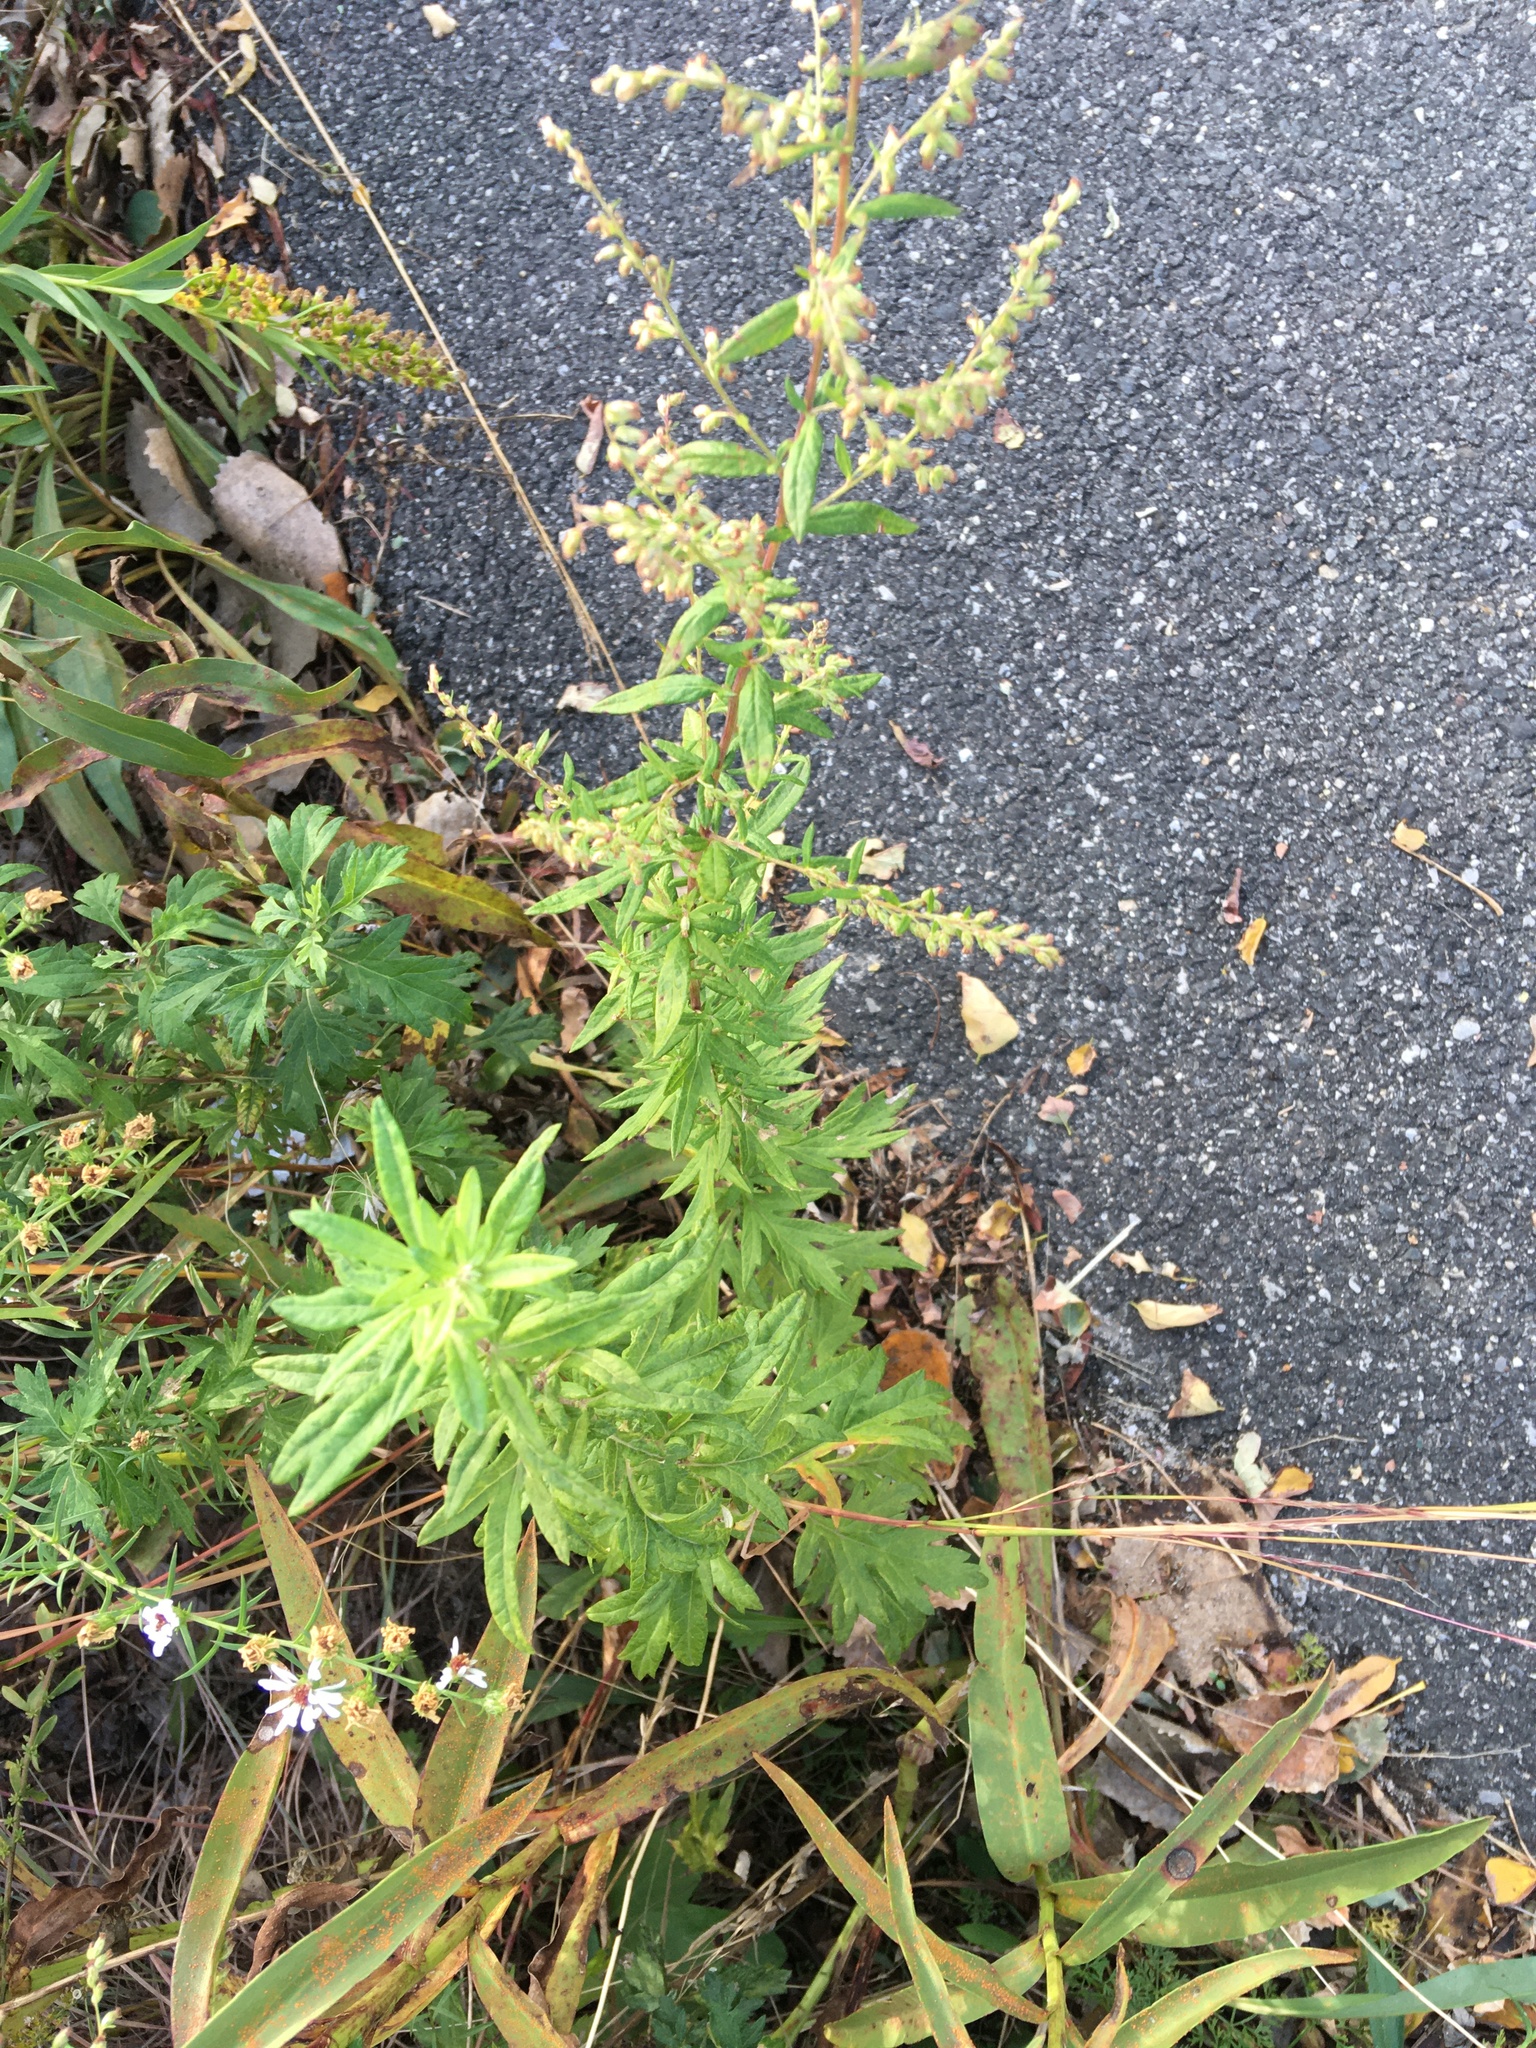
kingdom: Plantae
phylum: Tracheophyta
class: Magnoliopsida
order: Asterales
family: Asteraceae
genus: Artemisia
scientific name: Artemisia vulgaris
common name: Mugwort
